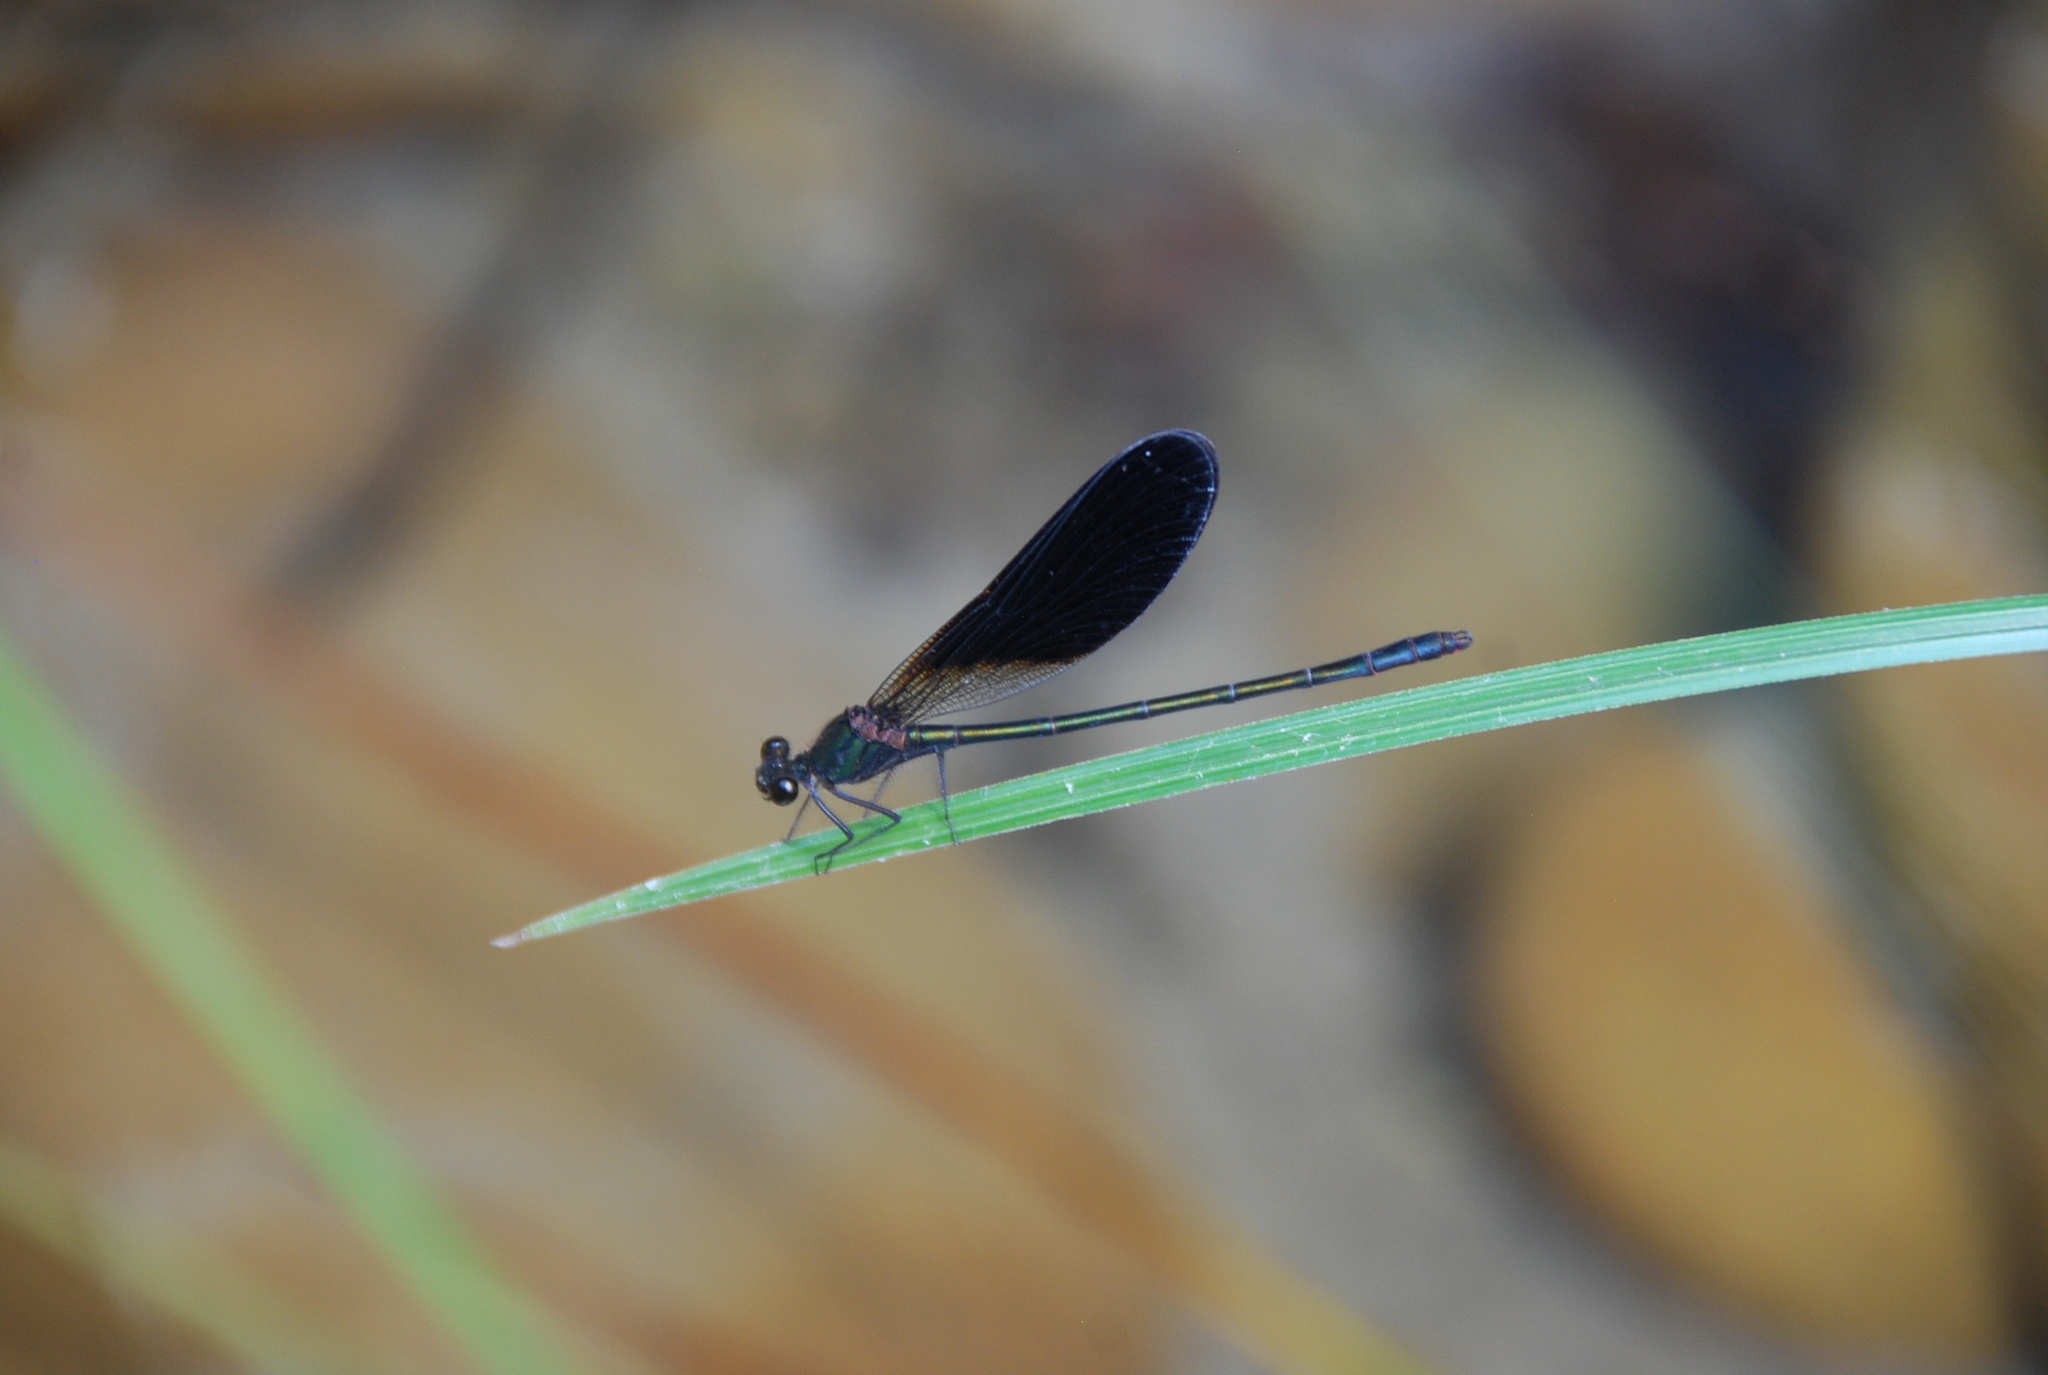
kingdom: Animalia
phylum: Arthropoda
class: Insecta
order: Odonata
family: Calopterygidae
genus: Calopteryx
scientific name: Calopteryx haemorrhoidalis
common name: Copper demoiselle
